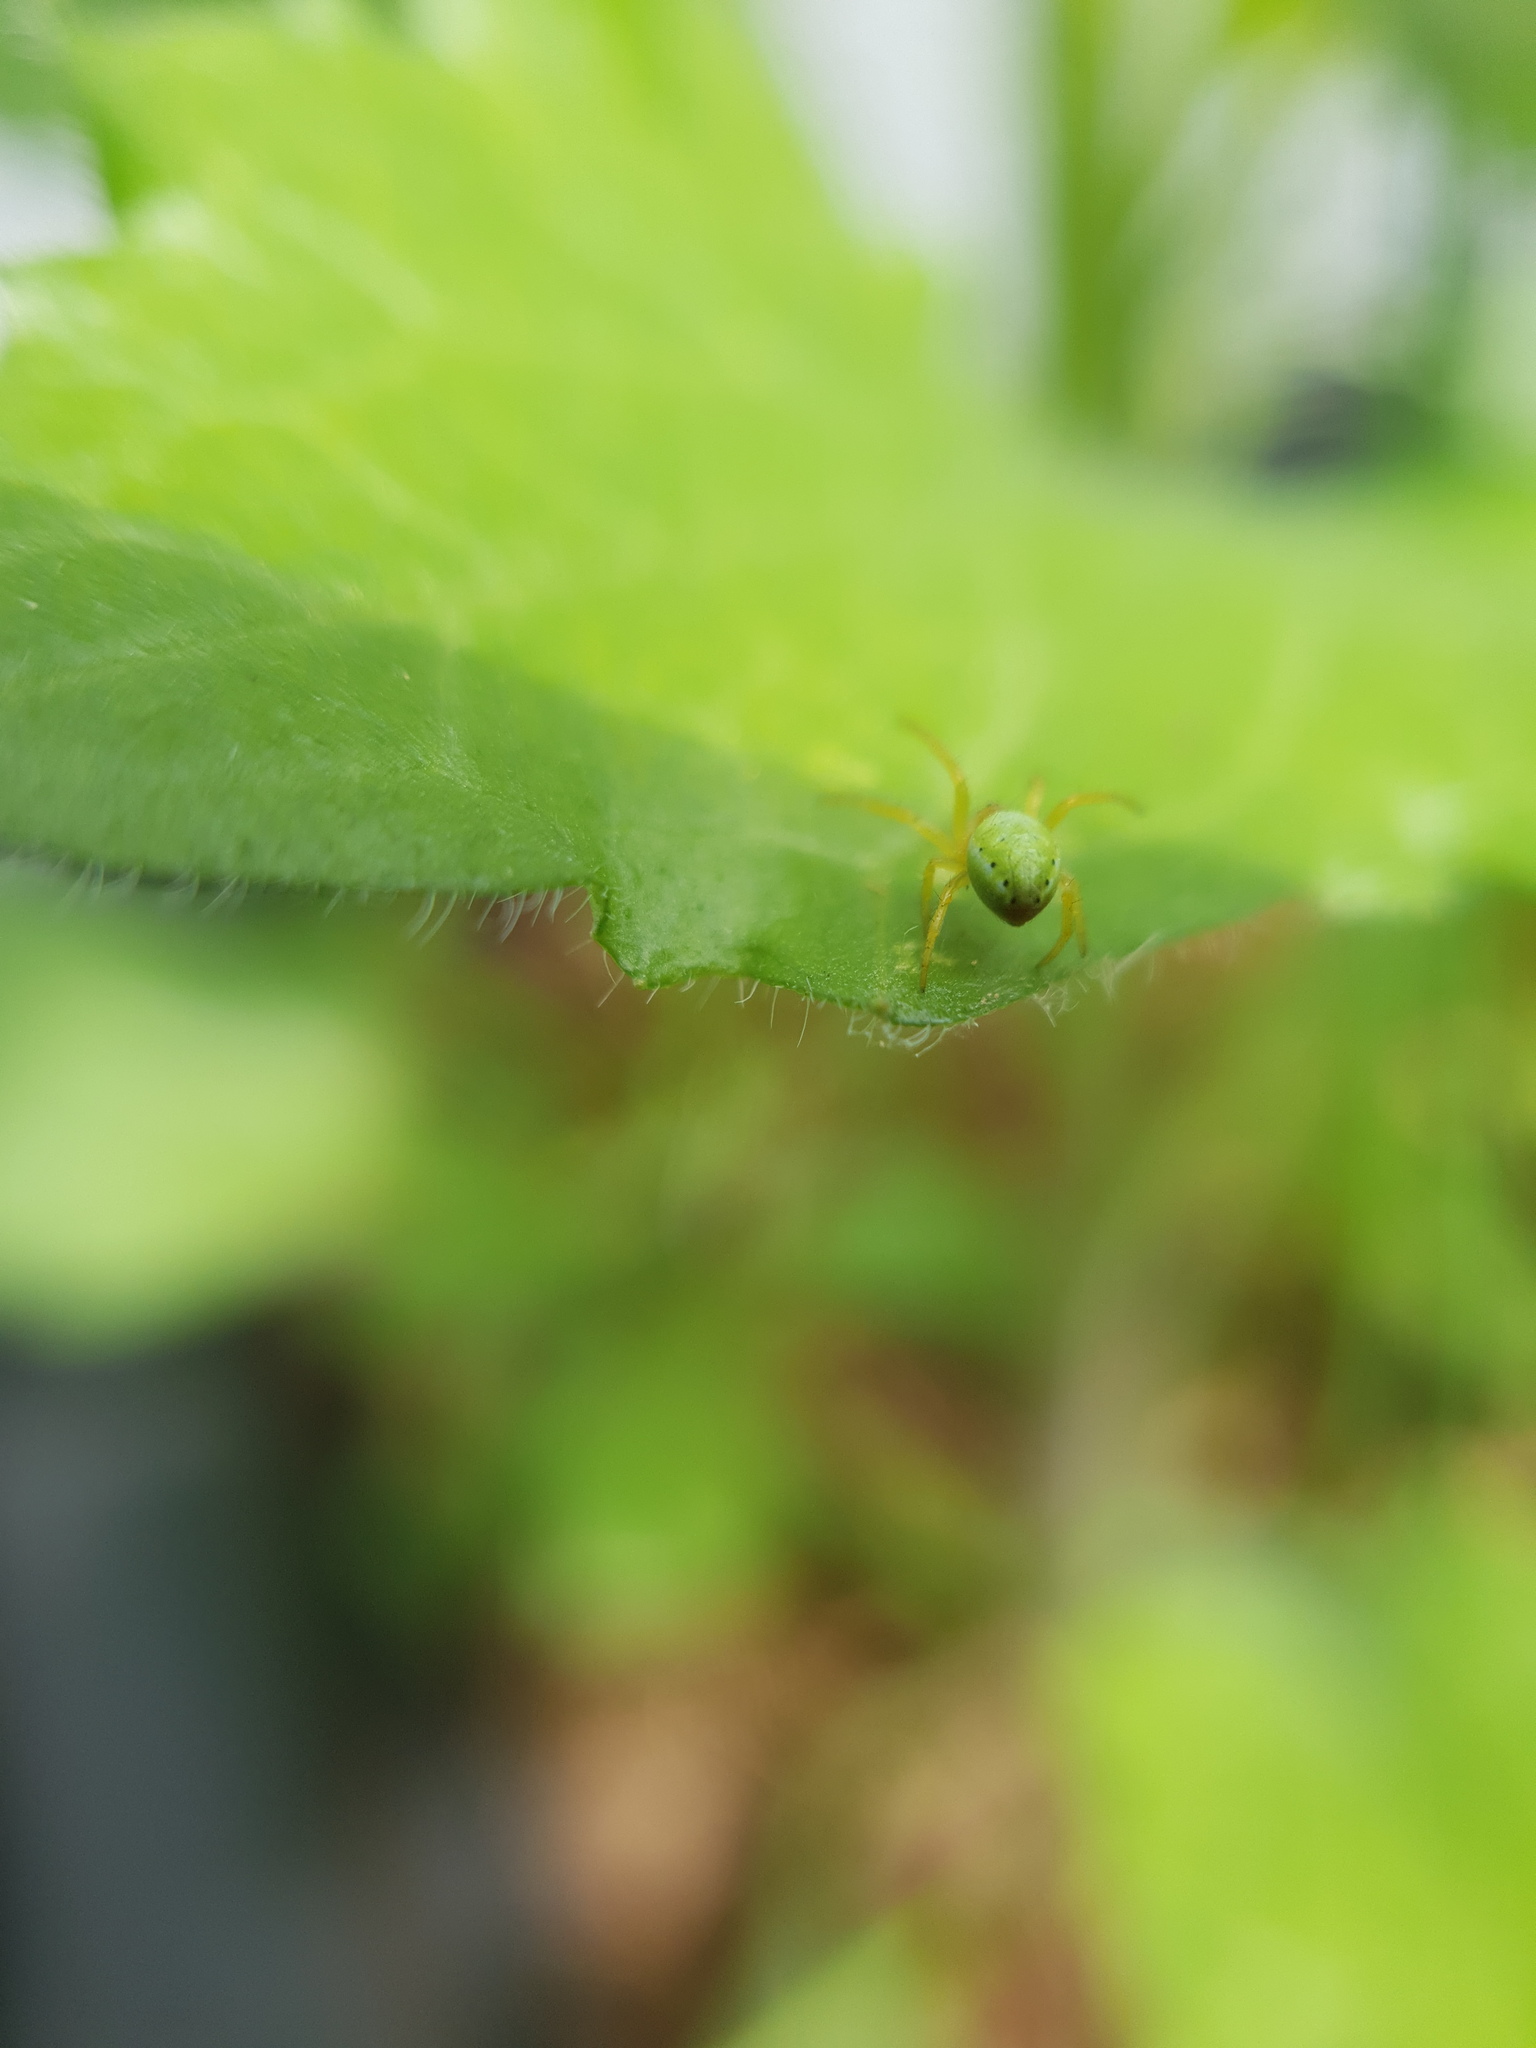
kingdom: Animalia
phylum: Arthropoda
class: Arachnida
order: Araneae
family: Araneidae
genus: Araniella
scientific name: Araniella
